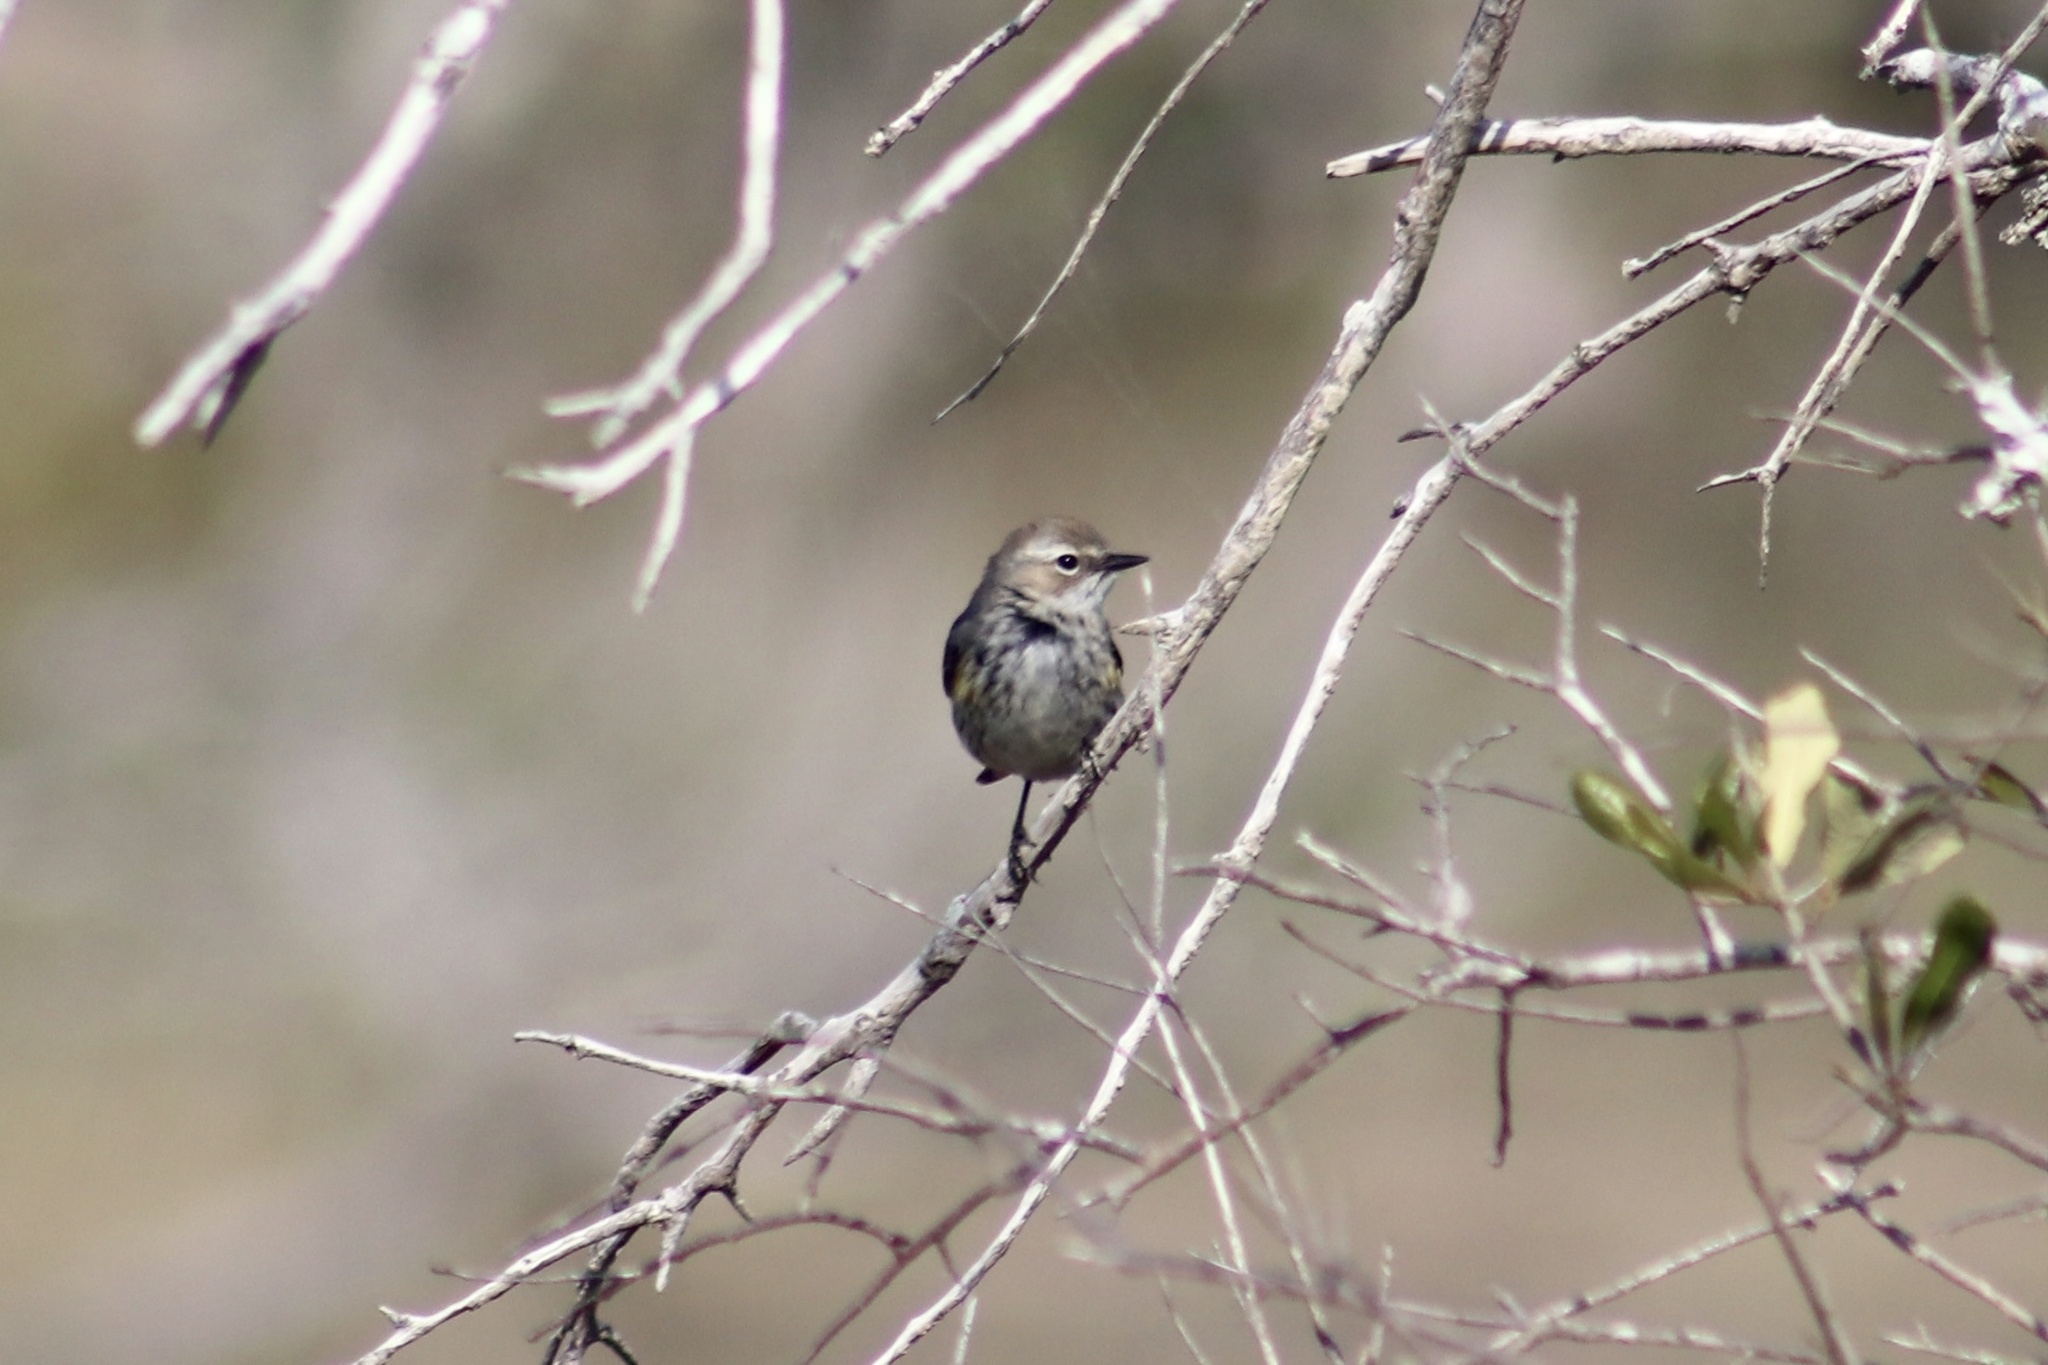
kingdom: Animalia
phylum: Chordata
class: Aves
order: Passeriformes
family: Parulidae
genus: Setophaga
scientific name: Setophaga coronata
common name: Myrtle warbler
